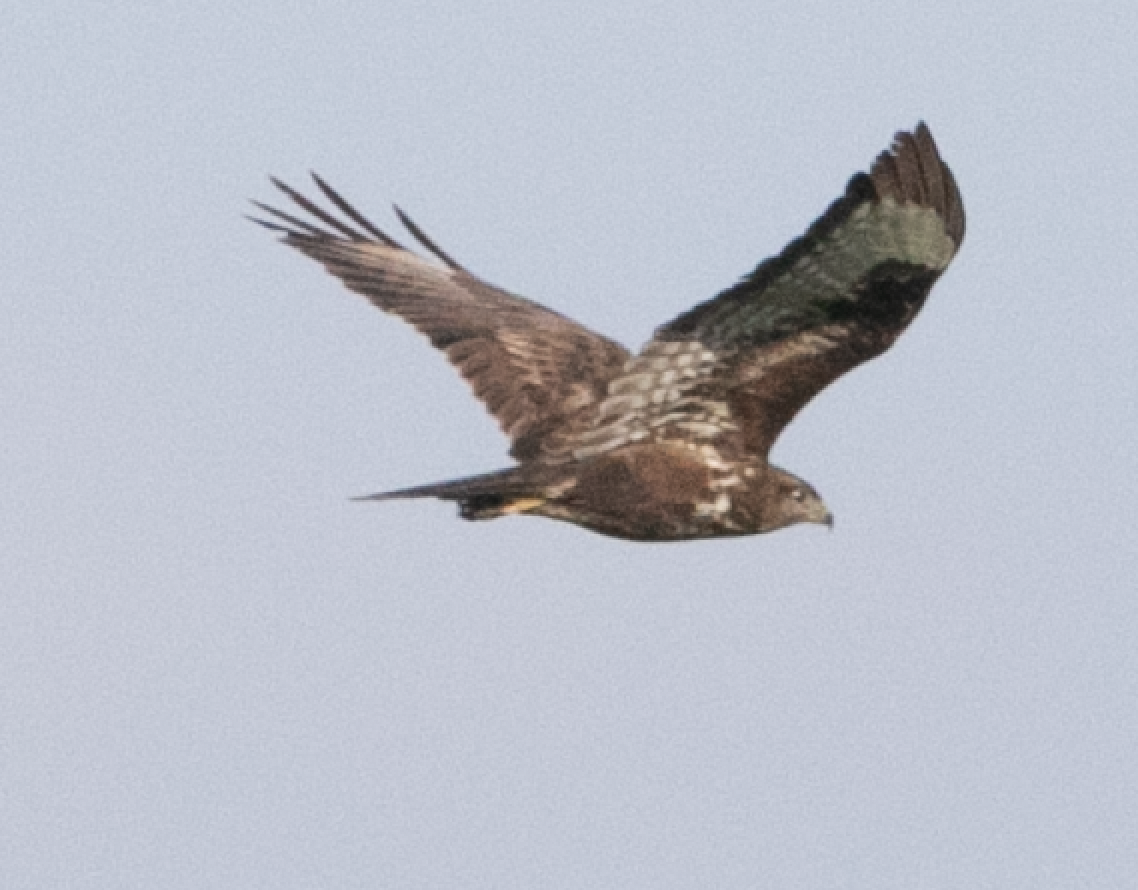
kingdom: Animalia
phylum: Chordata
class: Aves
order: Accipitriformes
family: Accipitridae
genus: Buteo
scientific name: Buteo buteo
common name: Common buzzard
